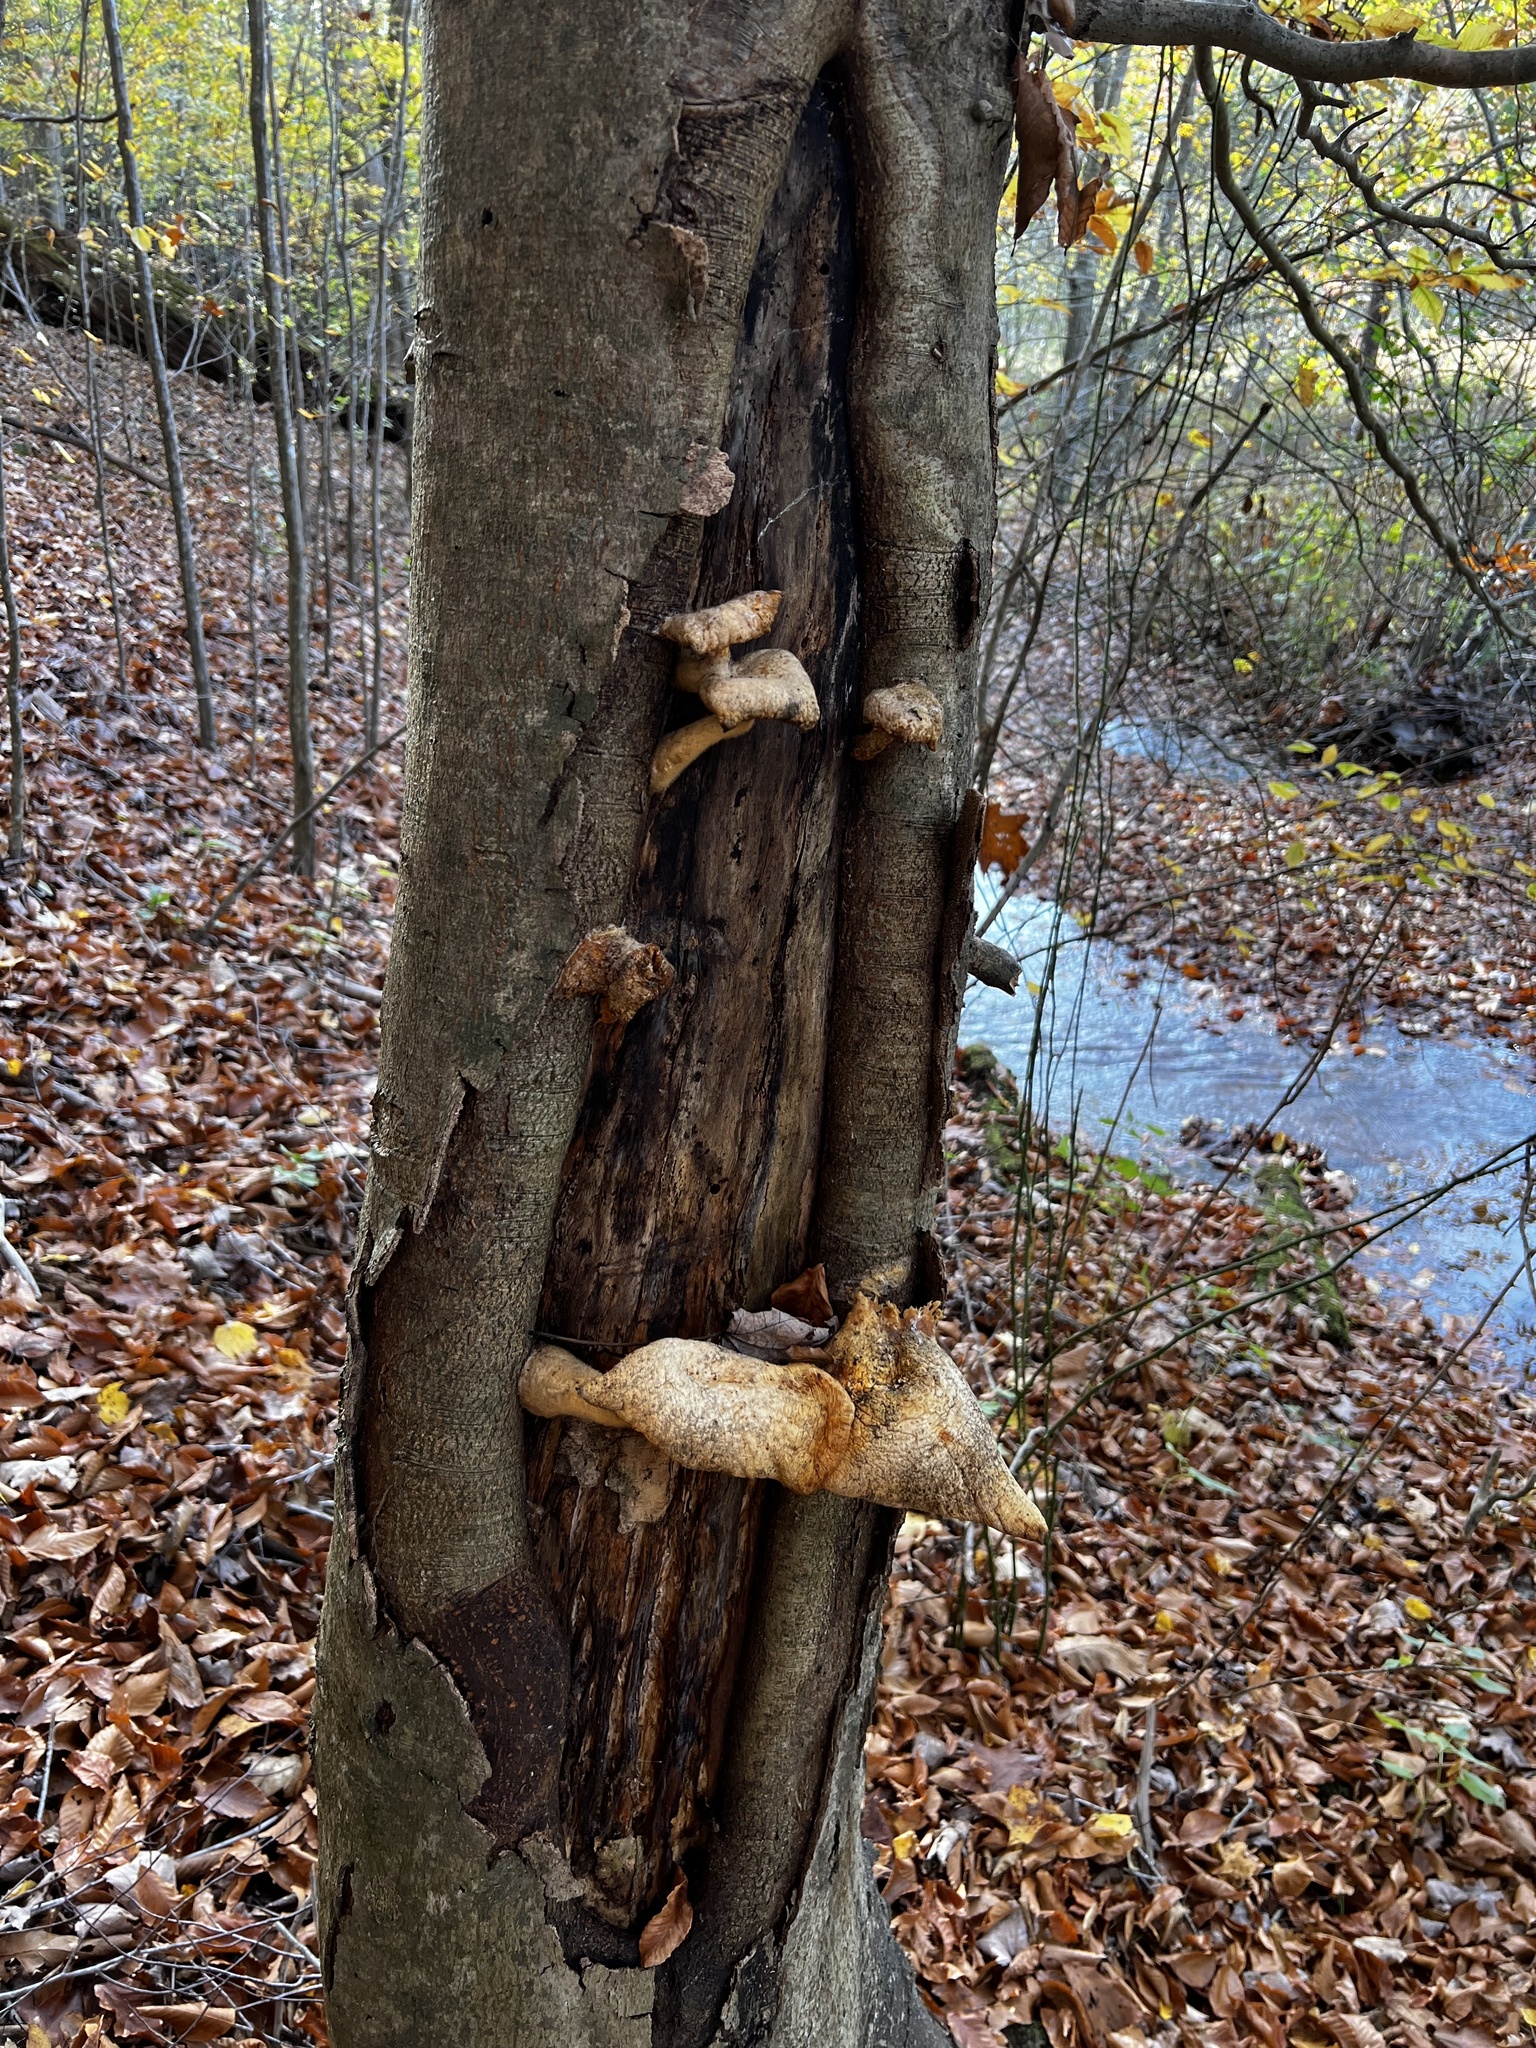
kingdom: Fungi
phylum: Basidiomycota
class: Agaricomycetes
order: Polyporales
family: Polyporaceae
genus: Lentinus
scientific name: Lentinus levis
